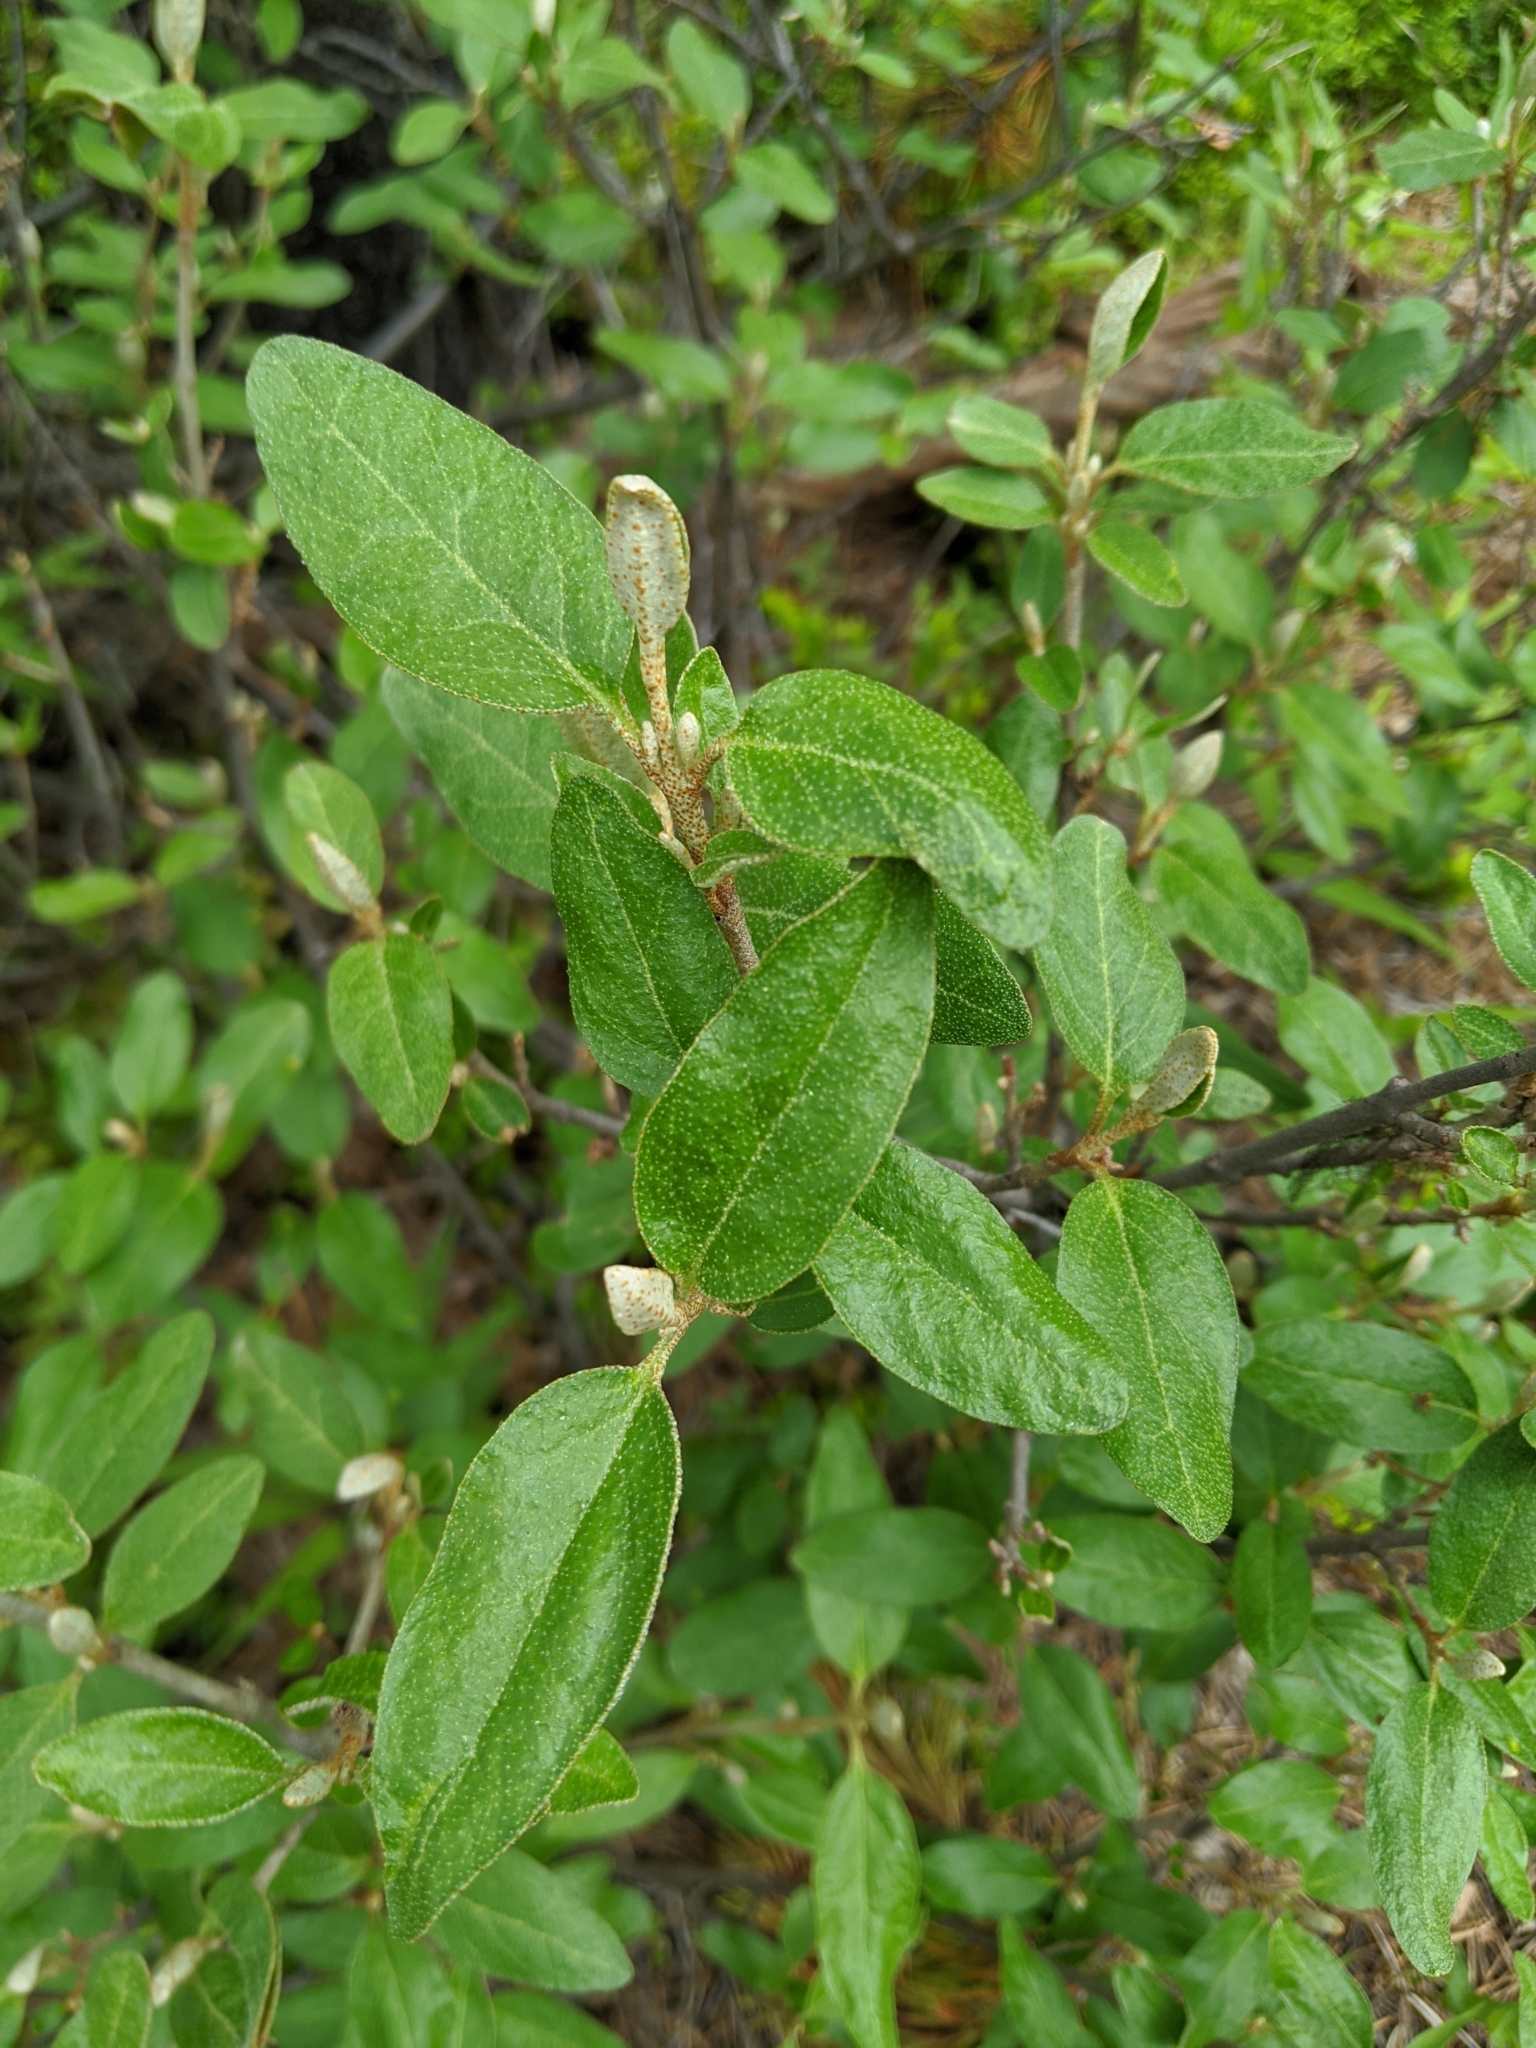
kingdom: Plantae
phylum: Tracheophyta
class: Magnoliopsida
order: Rosales
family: Elaeagnaceae
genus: Shepherdia
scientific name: Shepherdia canadensis
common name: Soapberry
